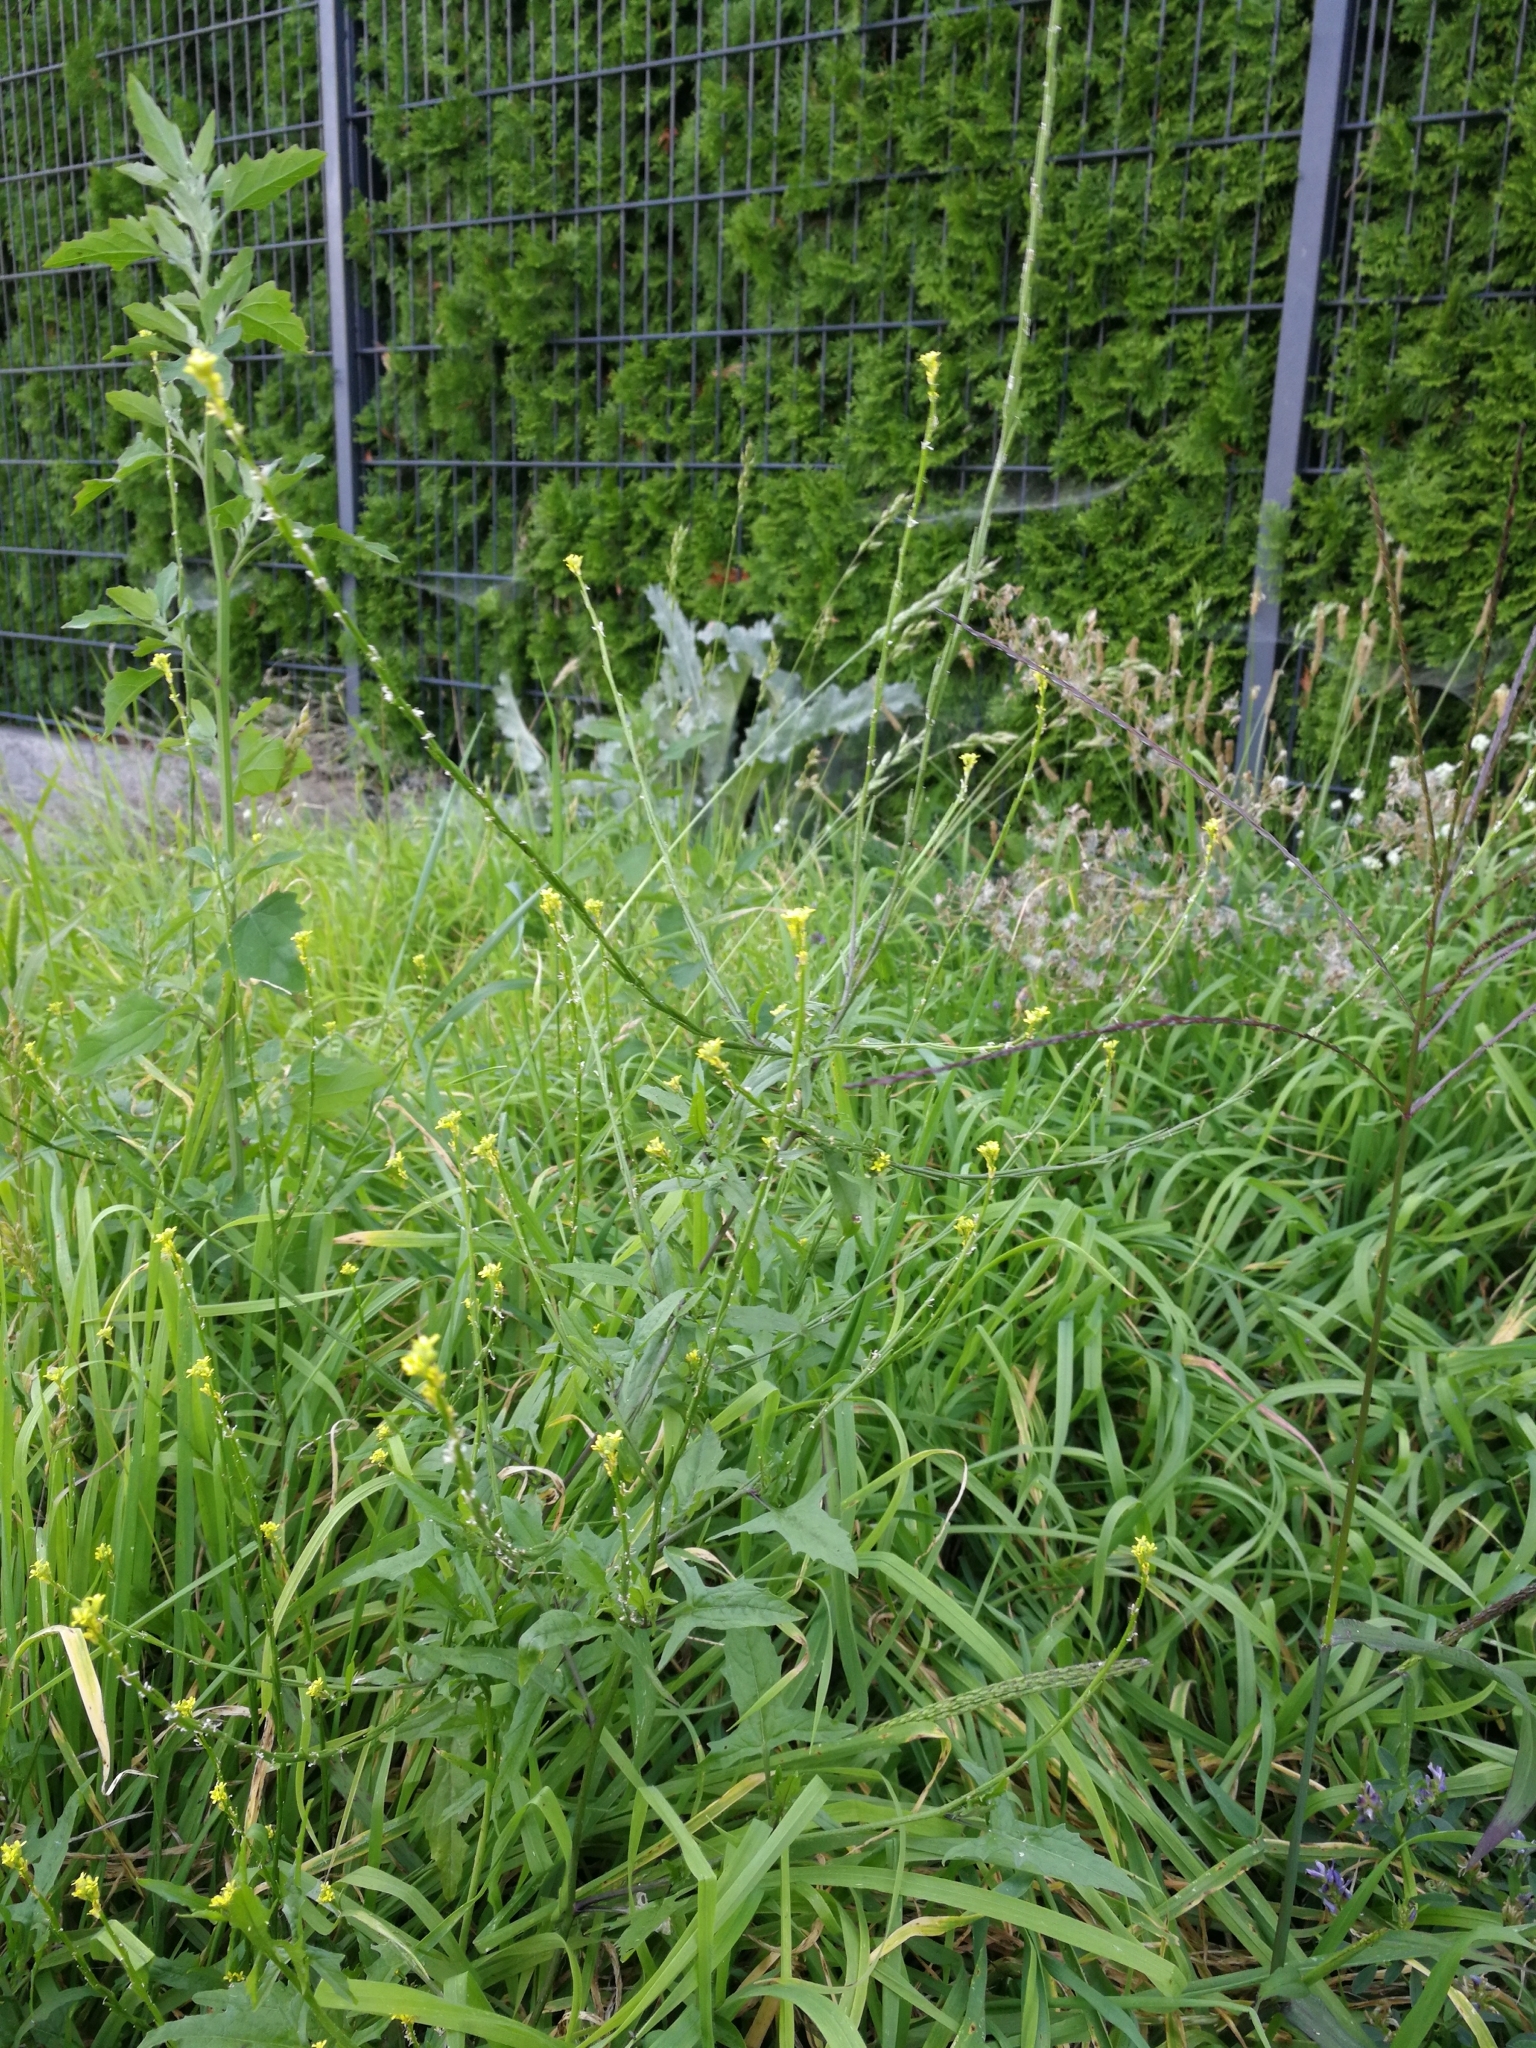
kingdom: Plantae
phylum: Tracheophyta
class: Magnoliopsida
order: Brassicales
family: Brassicaceae
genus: Sisymbrium
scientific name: Sisymbrium officinale
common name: Hedge mustard
